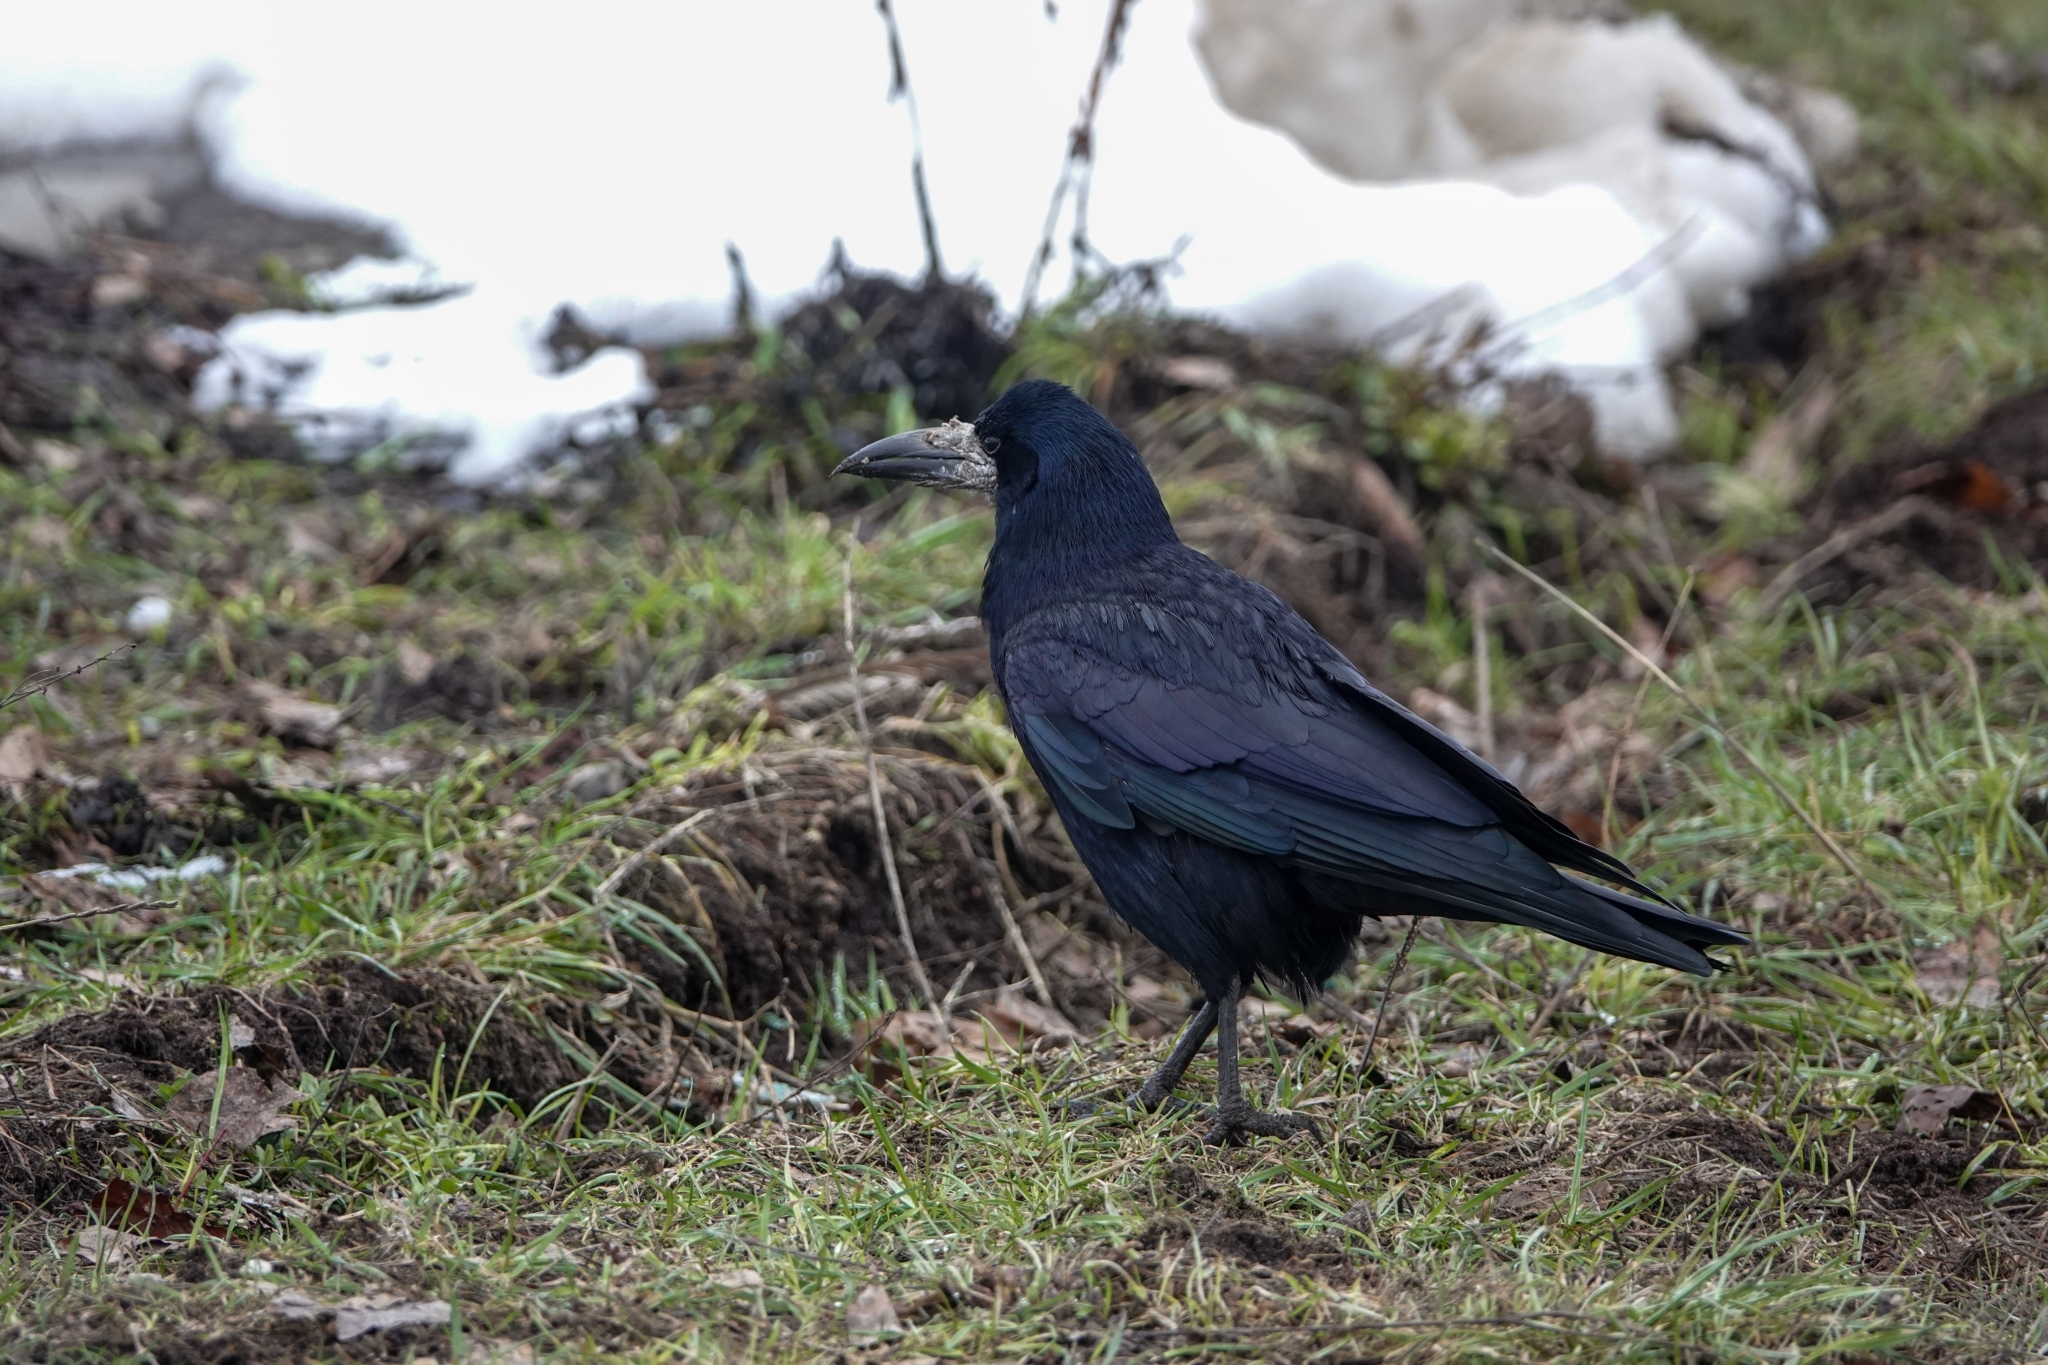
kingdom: Animalia
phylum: Chordata
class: Aves
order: Passeriformes
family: Corvidae
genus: Corvus
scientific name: Corvus frugilegus
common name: Rook
